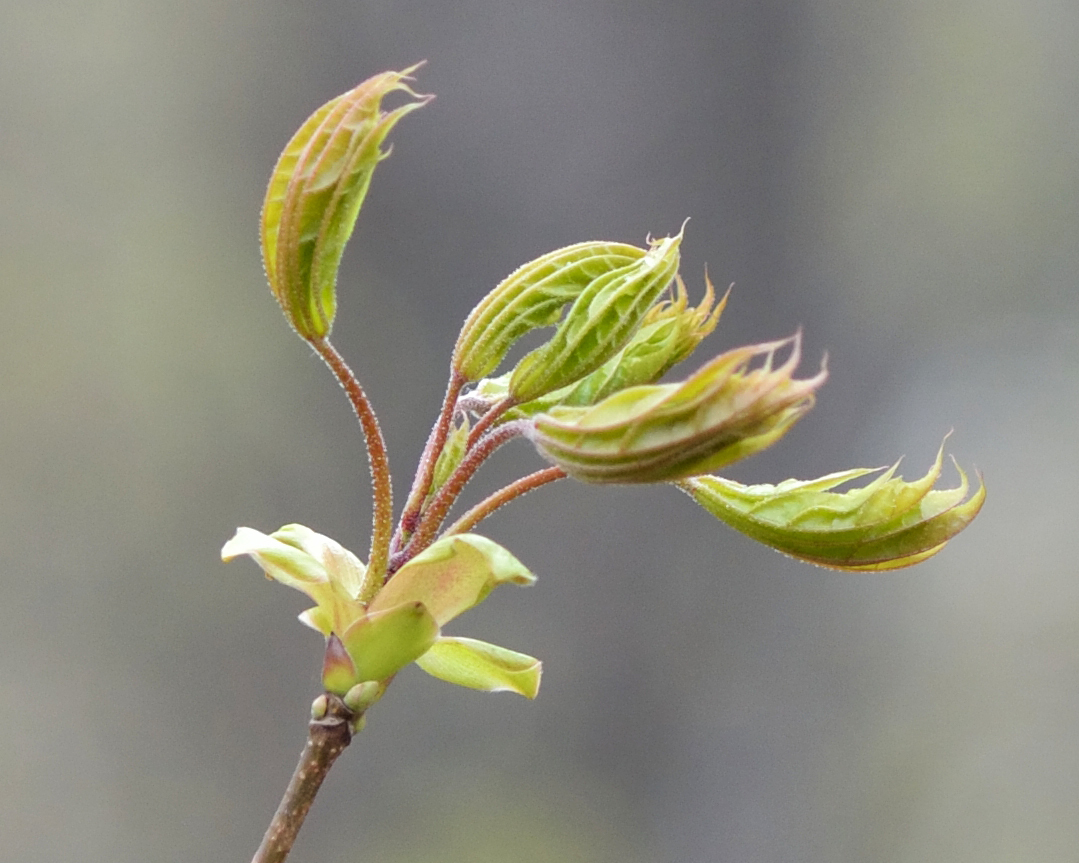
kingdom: Plantae
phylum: Tracheophyta
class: Magnoliopsida
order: Sapindales
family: Sapindaceae
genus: Acer
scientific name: Acer platanoides
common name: Norway maple
